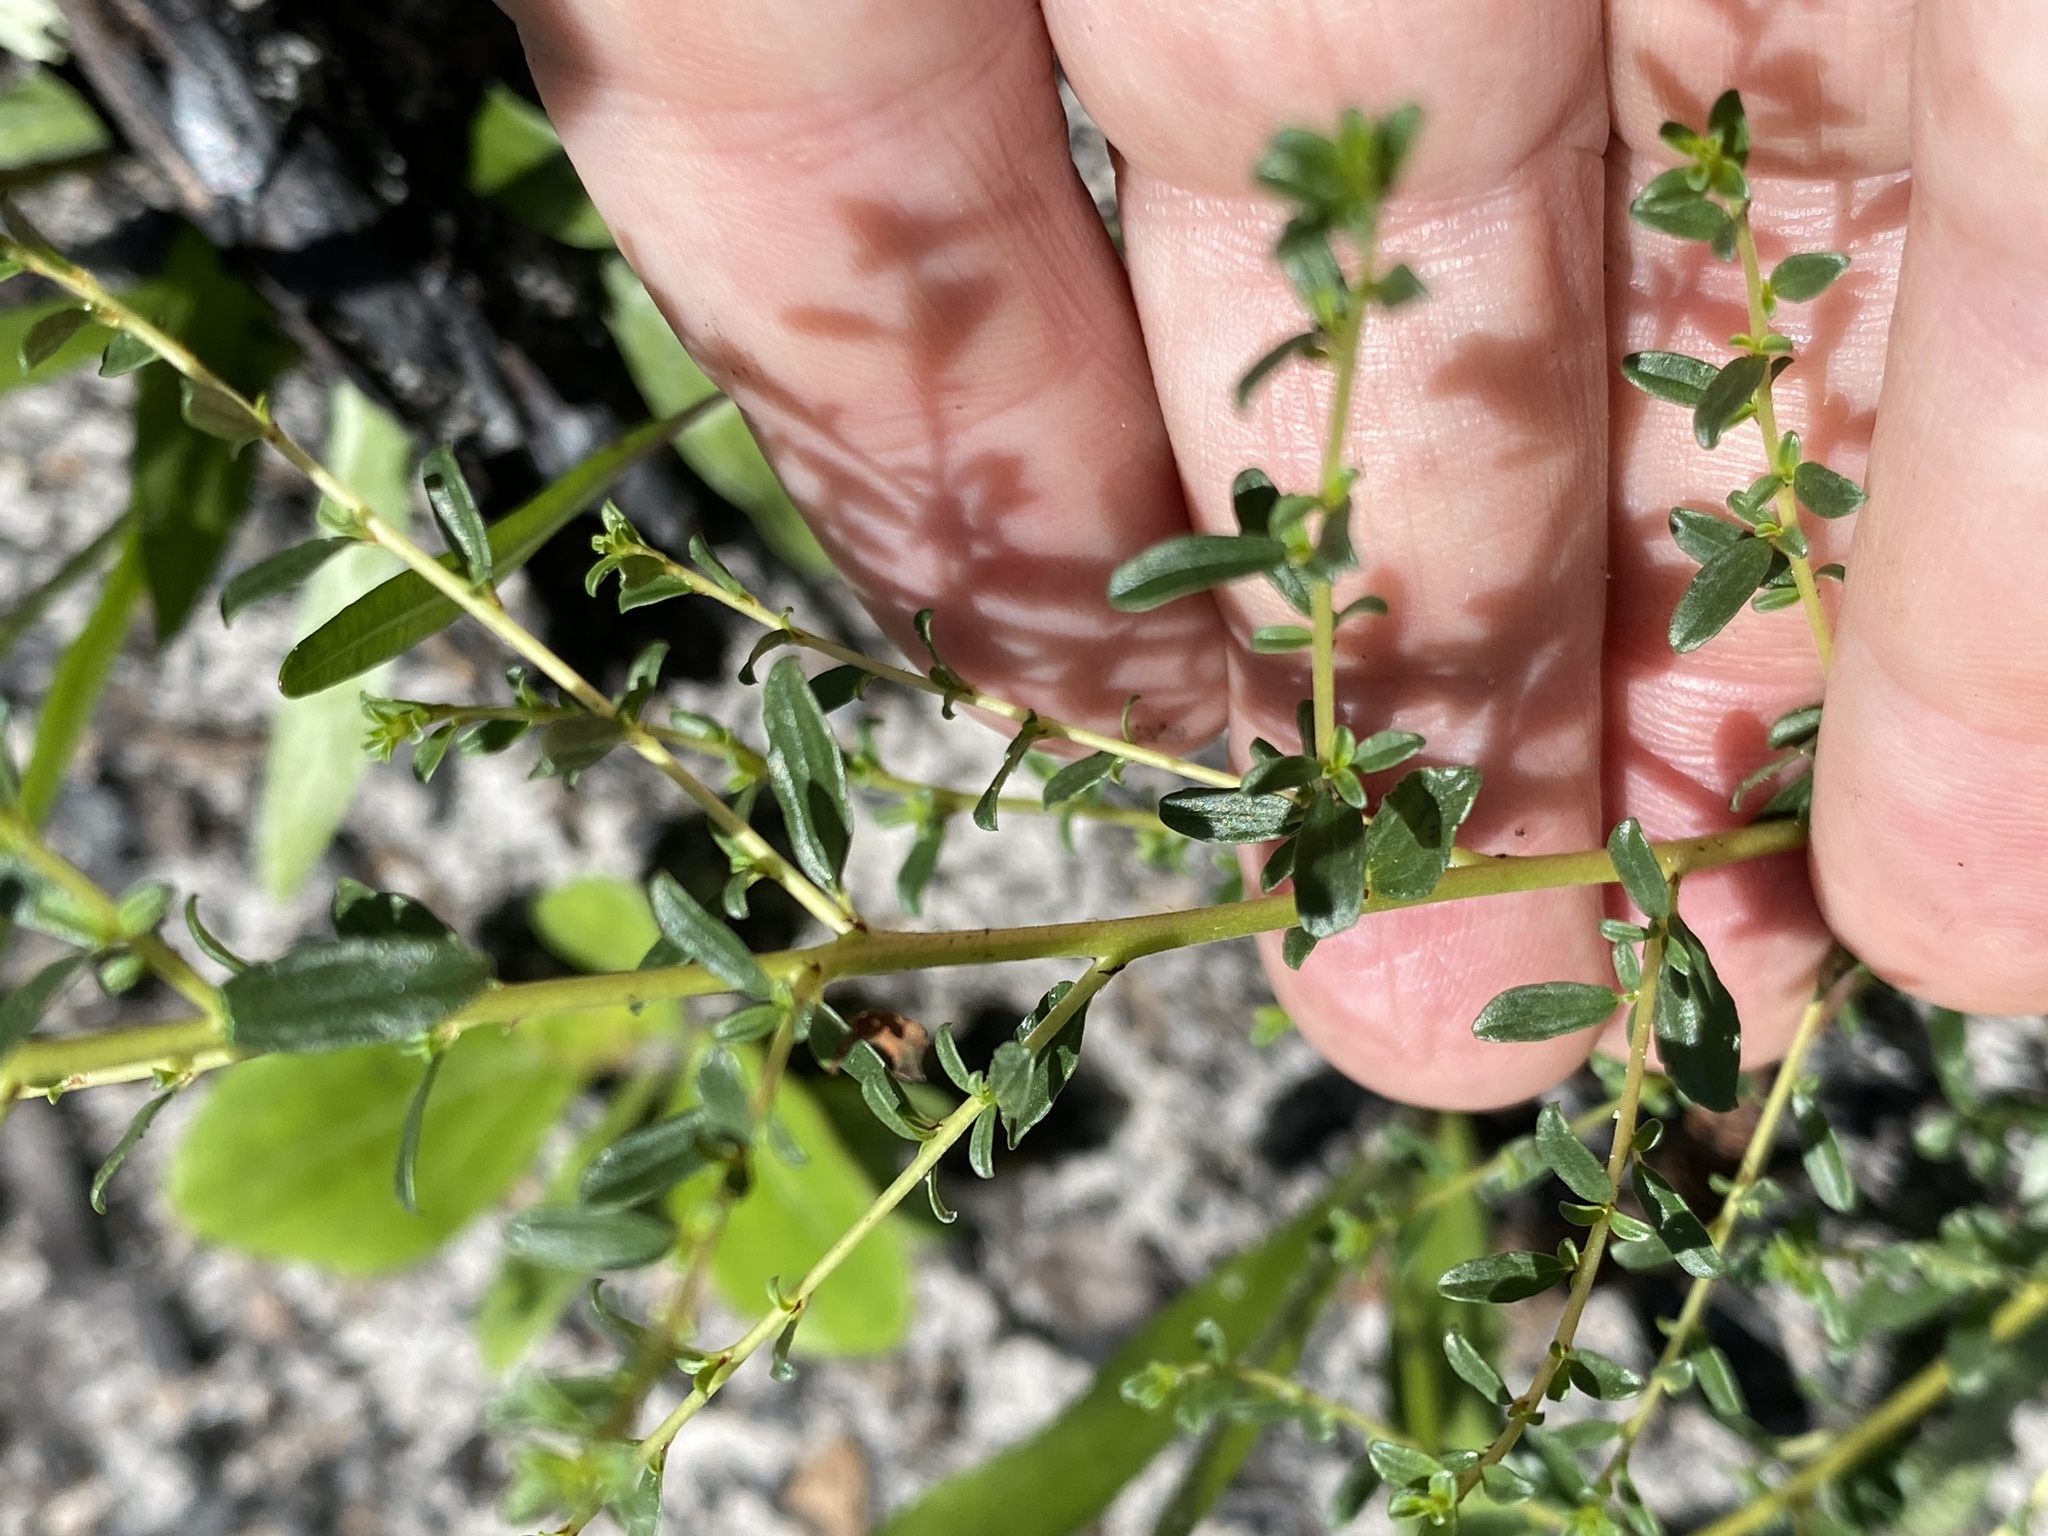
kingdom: Plantae
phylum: Tracheophyta
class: Magnoliopsida
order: Rosales
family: Rhamnaceae
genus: Ceanothus
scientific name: Ceanothus microphyllus
